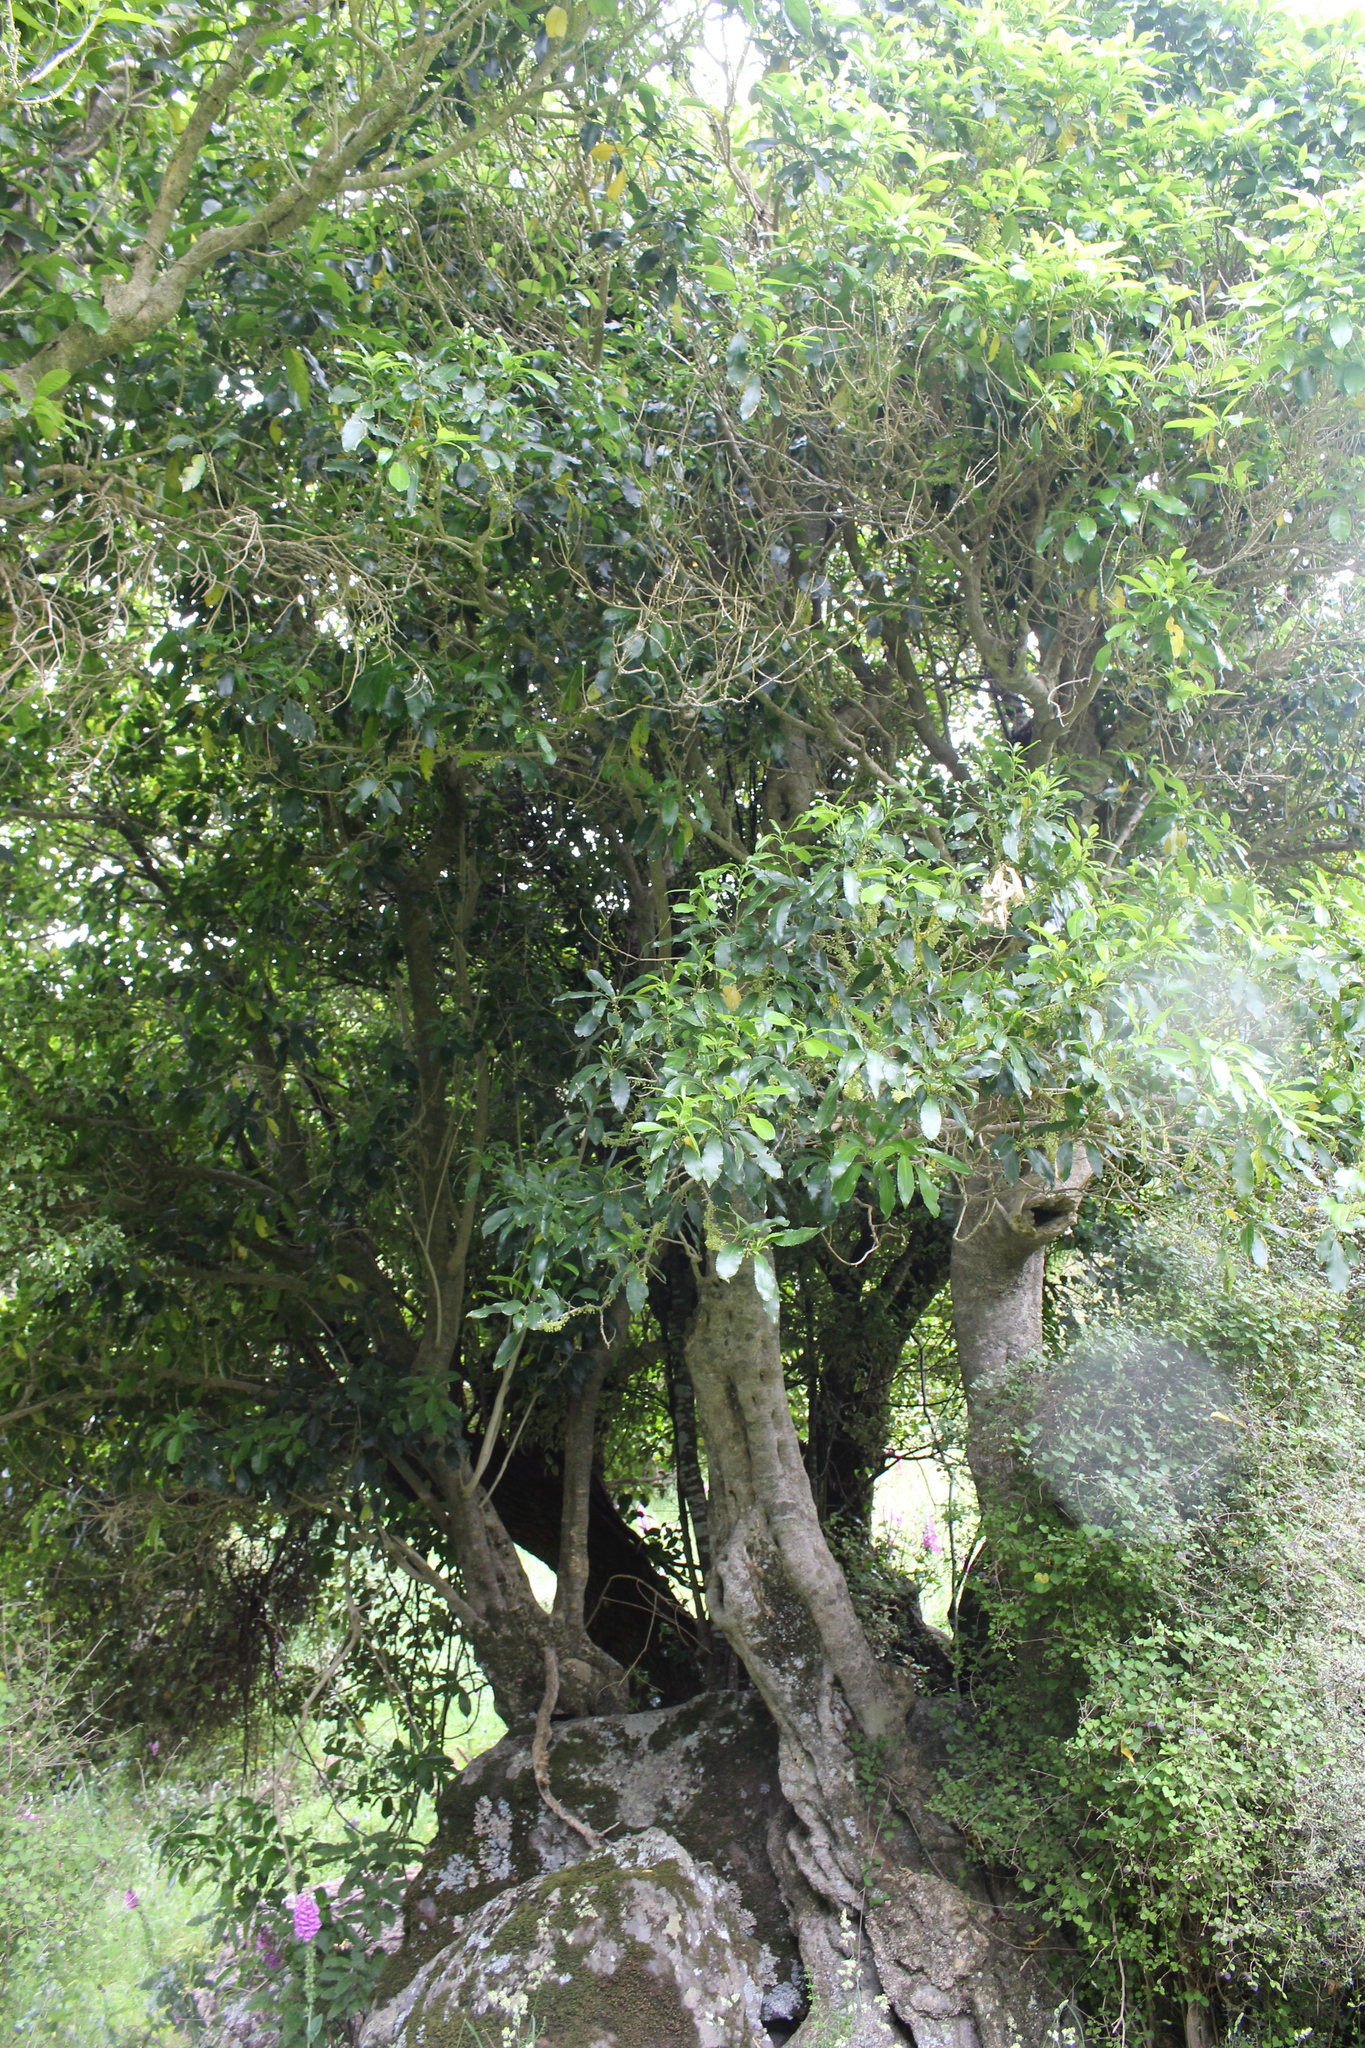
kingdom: Plantae
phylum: Tracheophyta
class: Magnoliopsida
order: Malpighiales
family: Violaceae
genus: Melicytus
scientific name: Melicytus ramiflorus
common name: Mahoe
